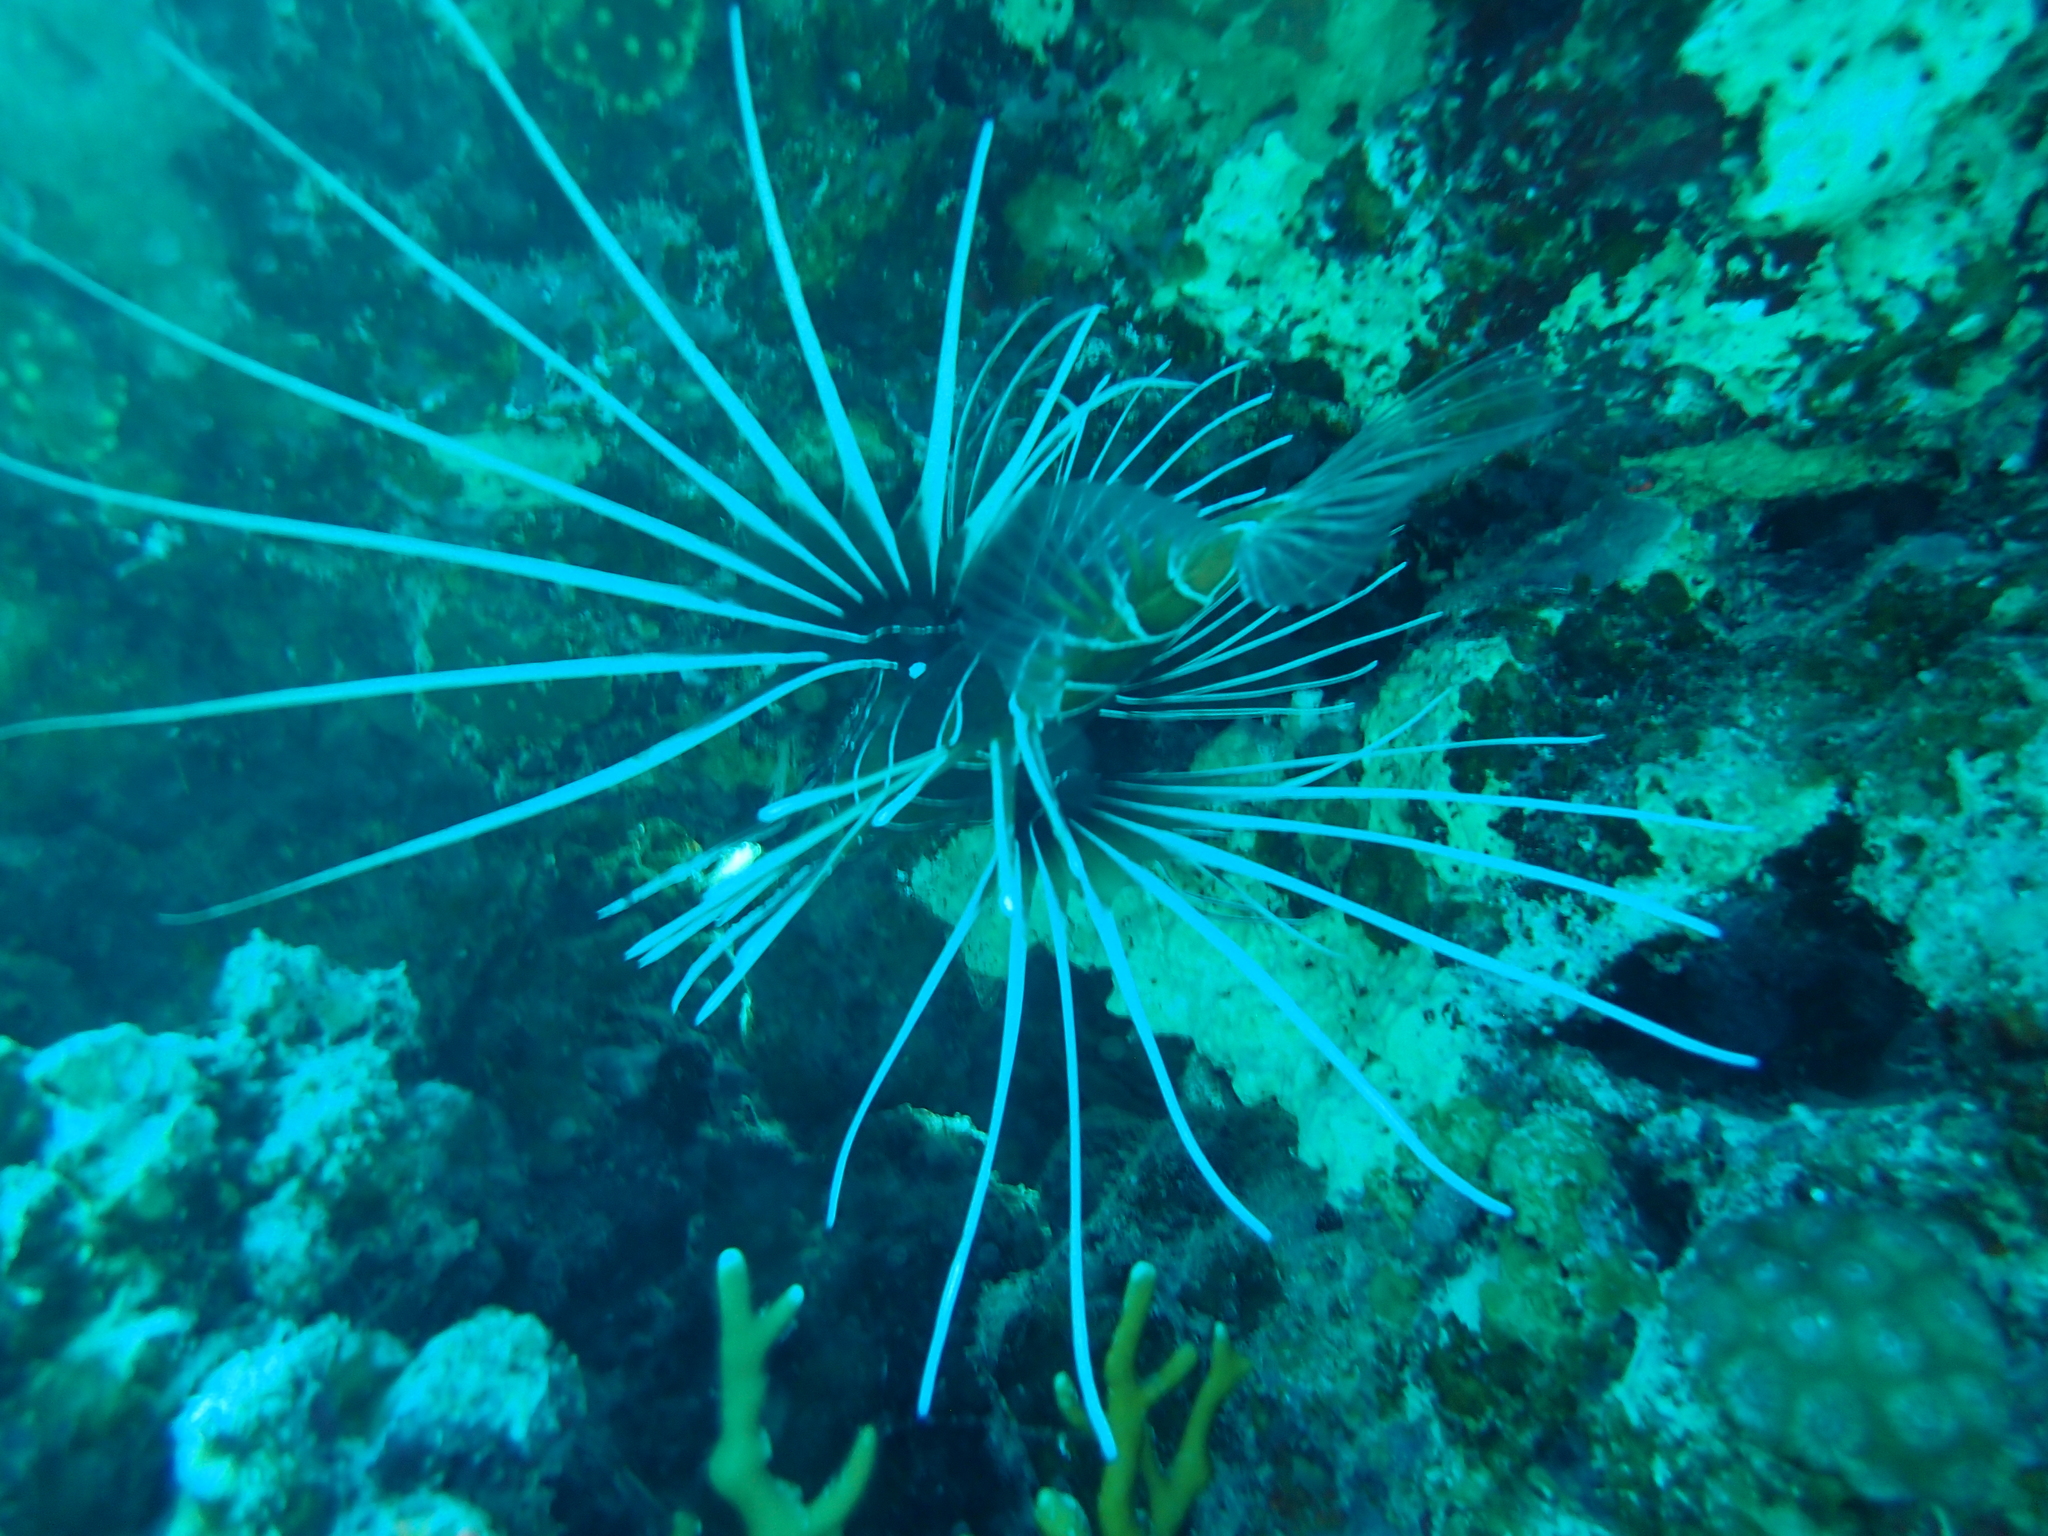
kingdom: Animalia
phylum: Chordata
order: Scorpaeniformes
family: Scorpaenidae
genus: Pterois
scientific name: Pterois cincta
